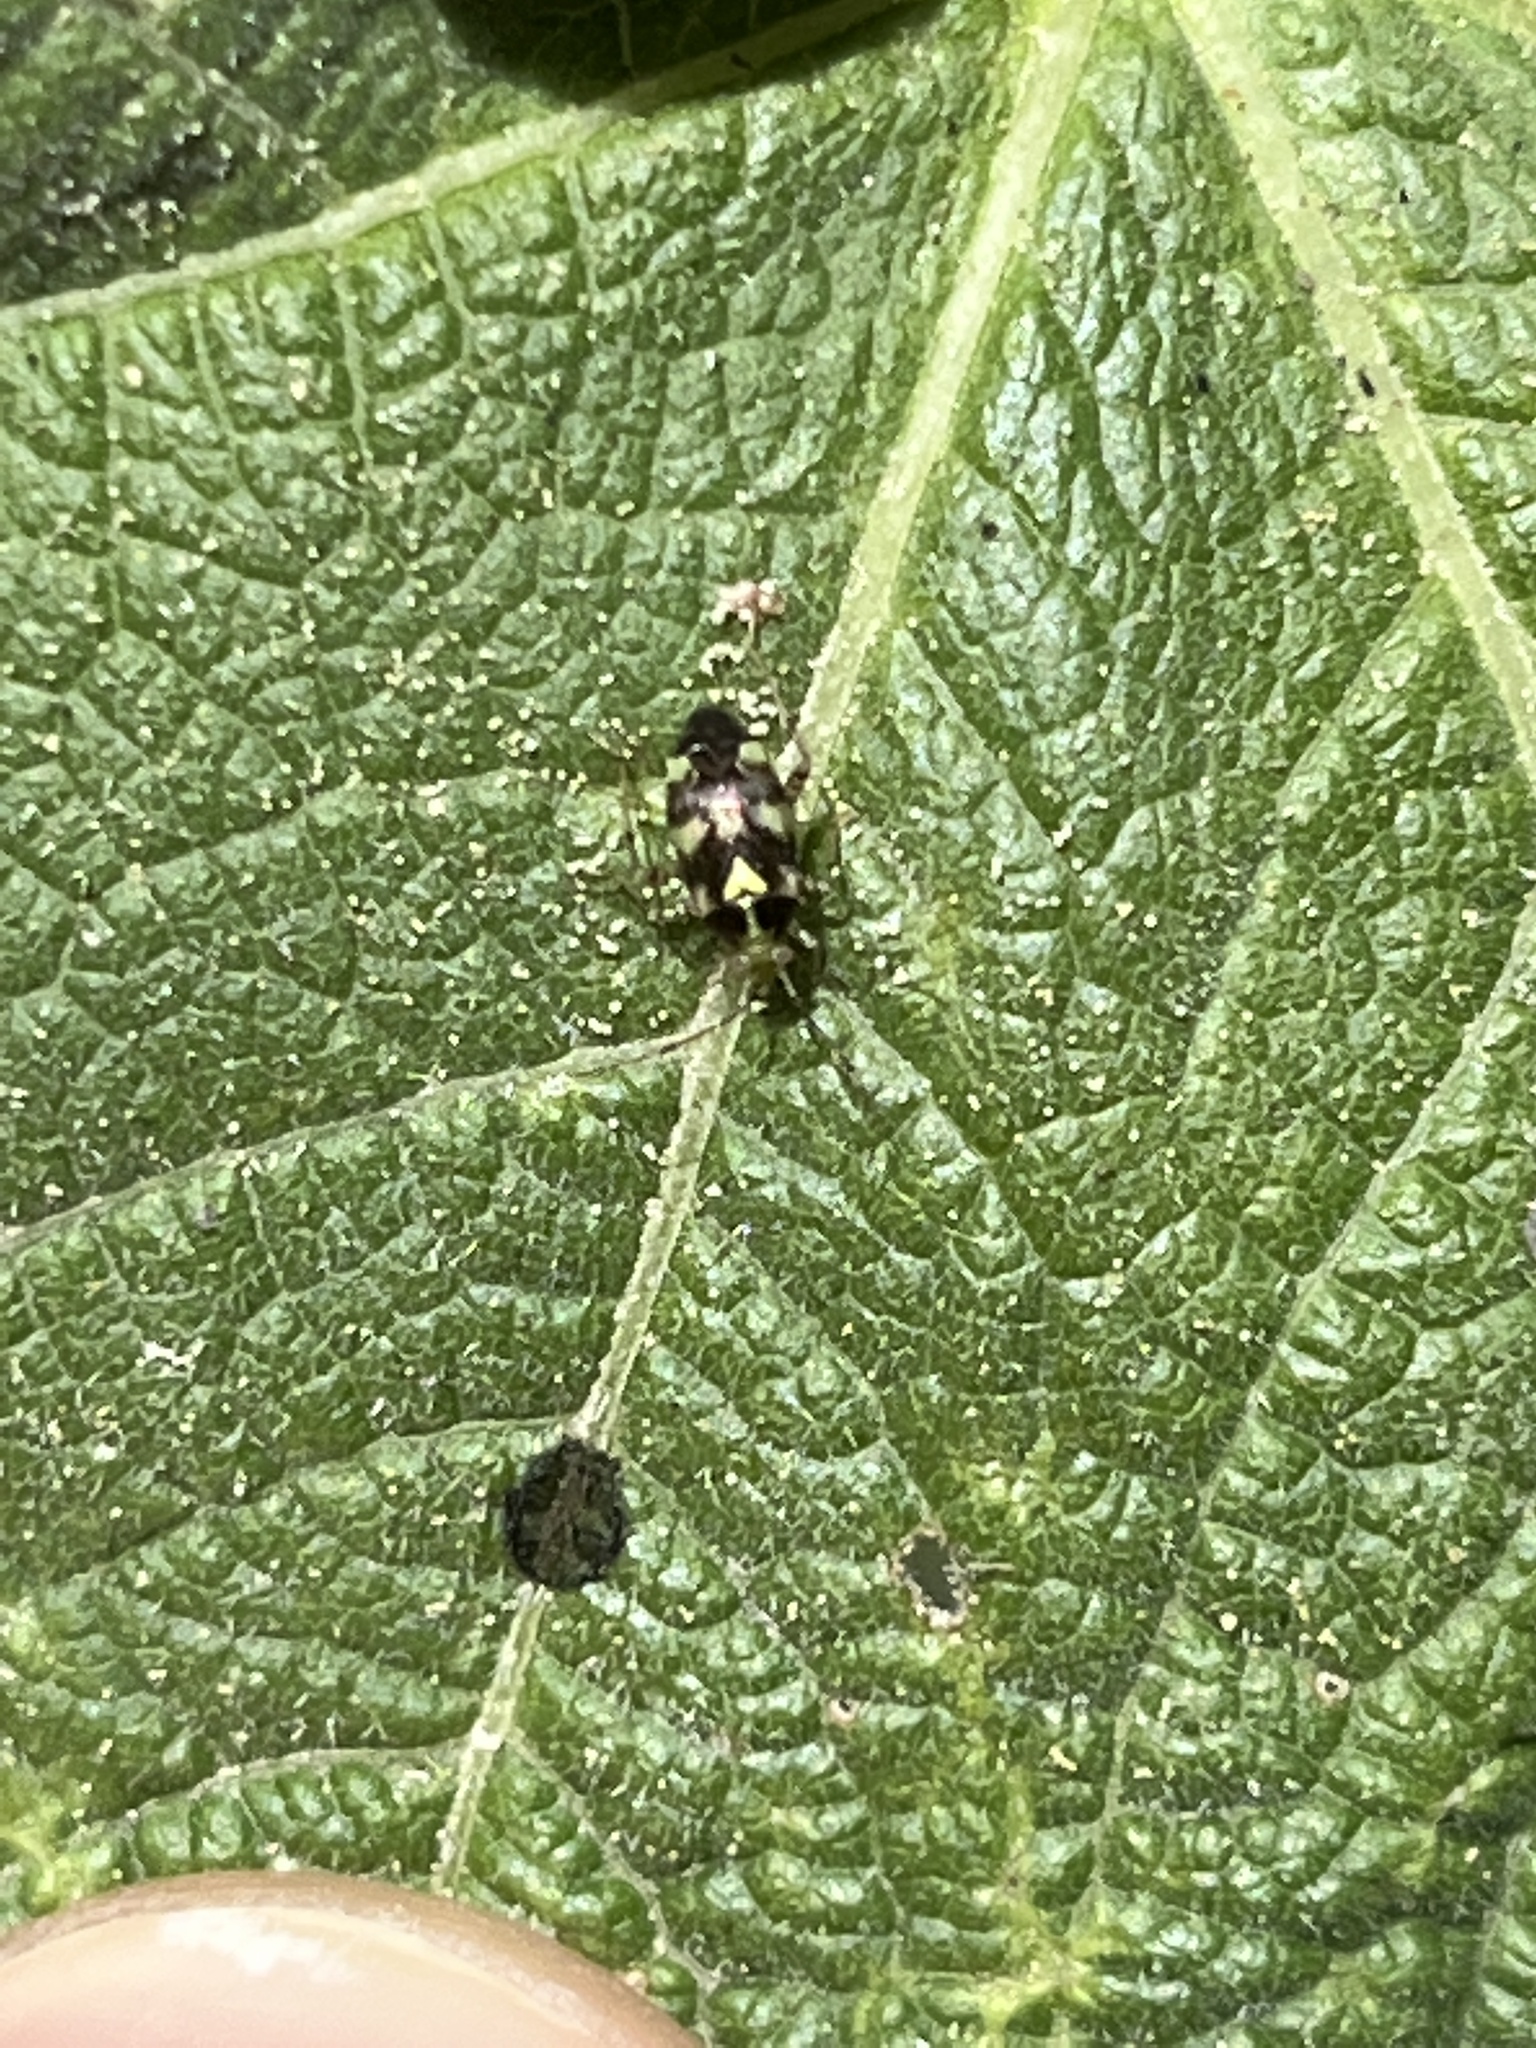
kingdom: Animalia
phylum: Arthropoda
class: Insecta
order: Hemiptera
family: Miridae
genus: Liocoris
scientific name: Liocoris tripustulatus
